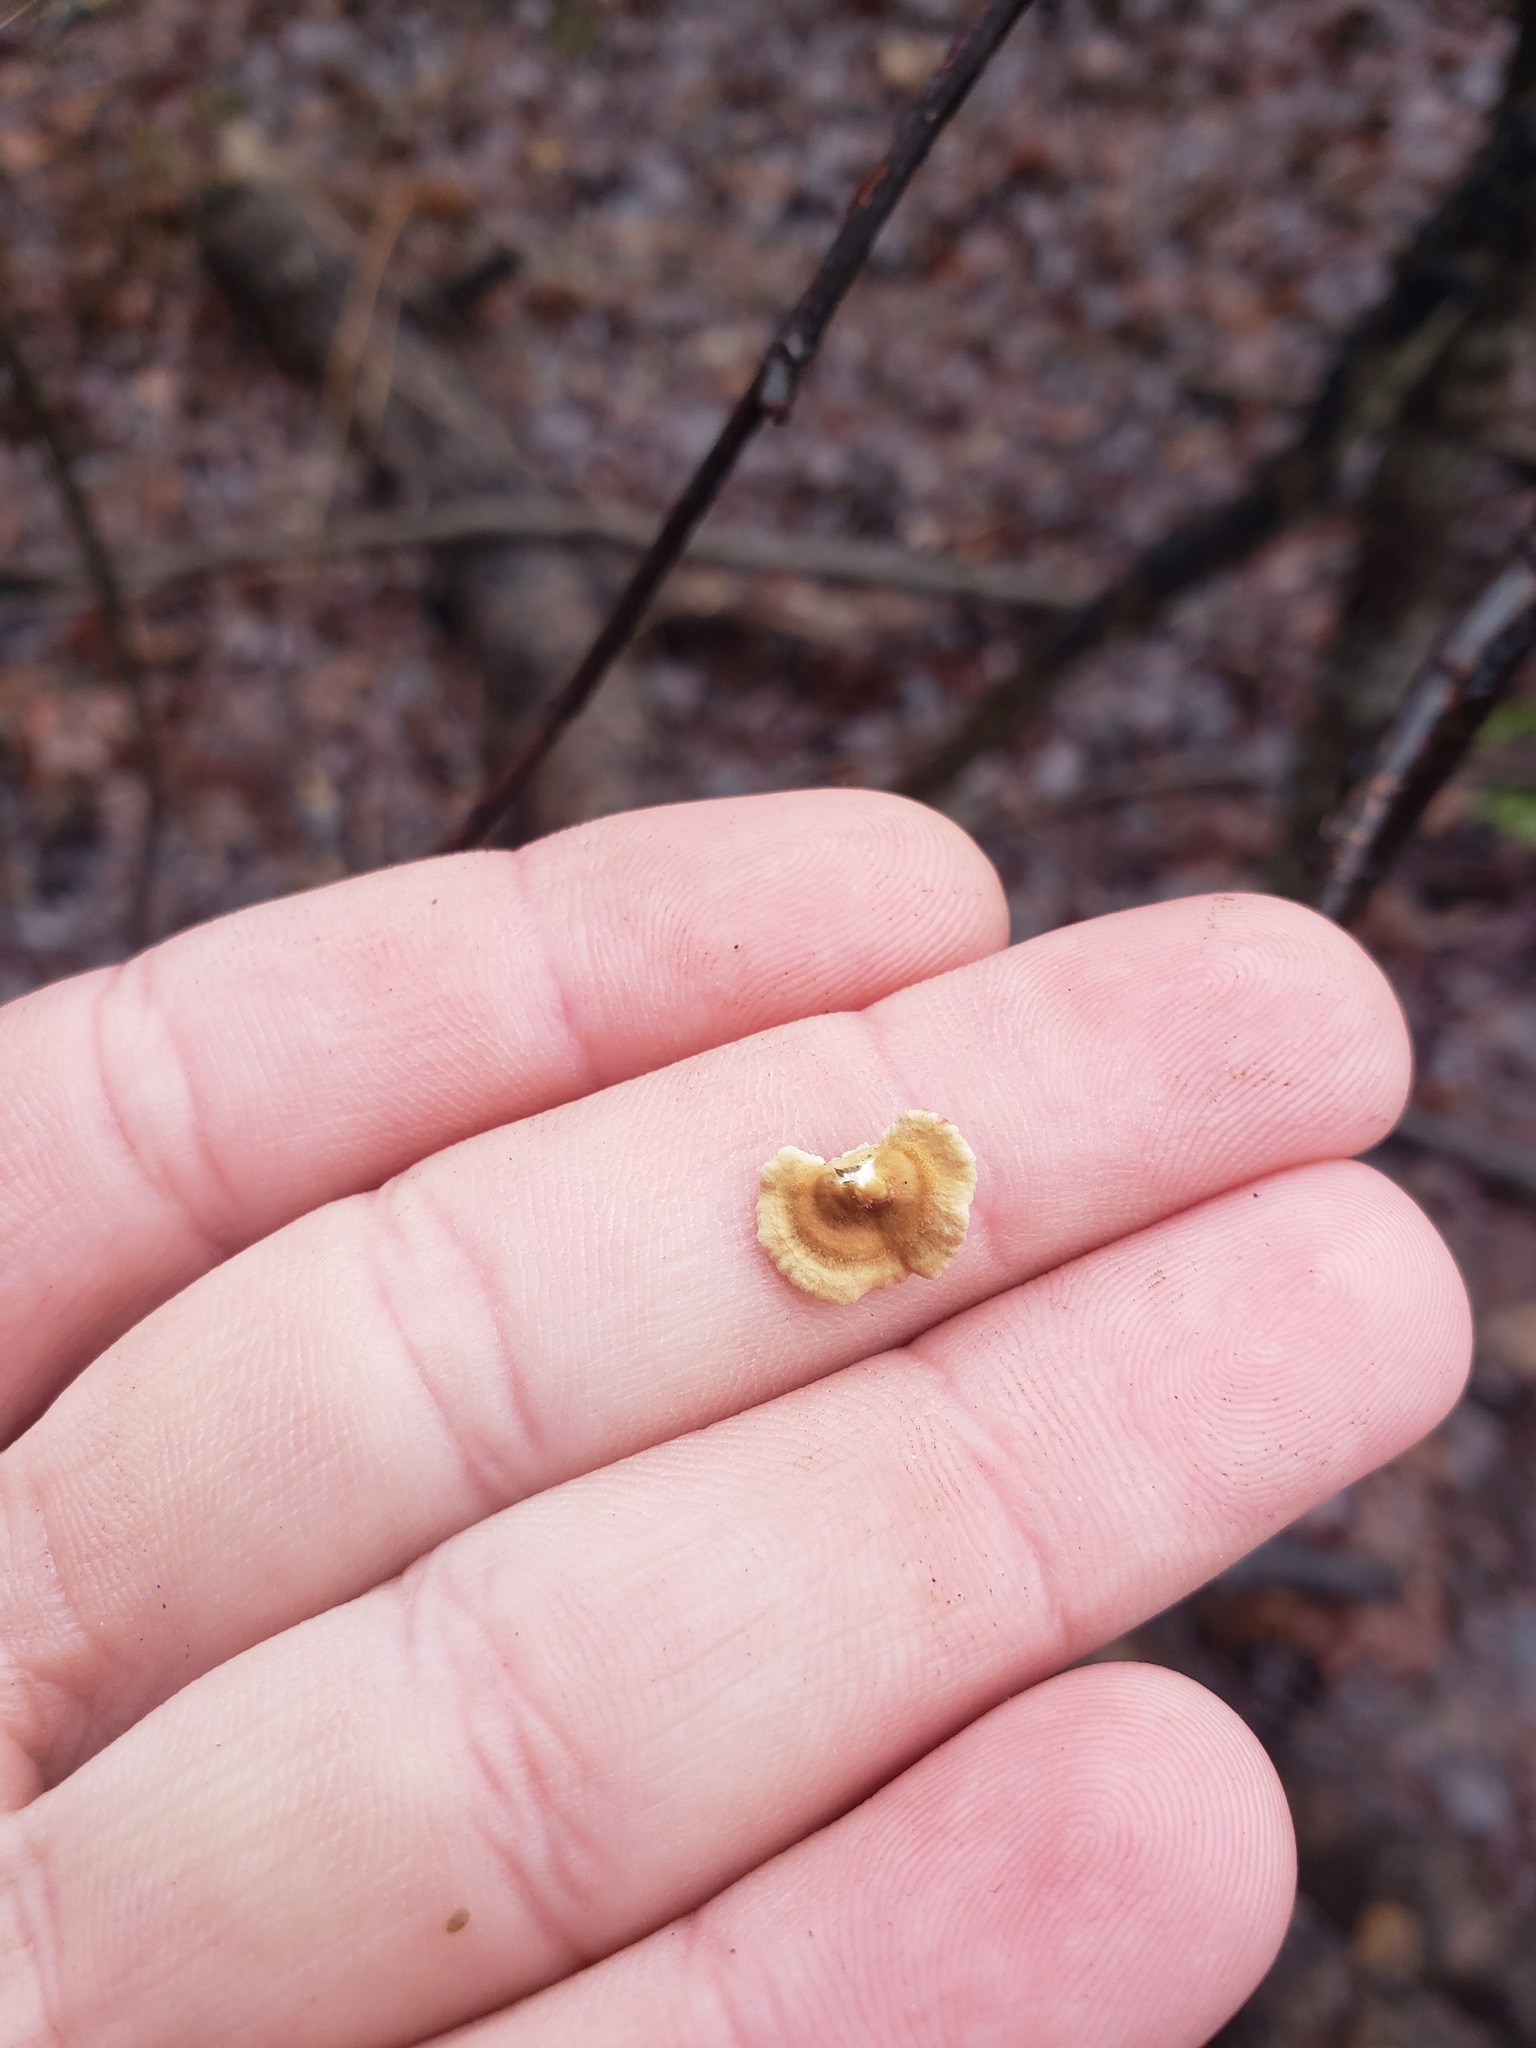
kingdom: Fungi
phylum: Basidiomycota
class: Agaricomycetes
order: Amylocorticiales
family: Amylocorticiaceae
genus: Plicaturopsis
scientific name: Plicaturopsis crispa
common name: Crimped gill
